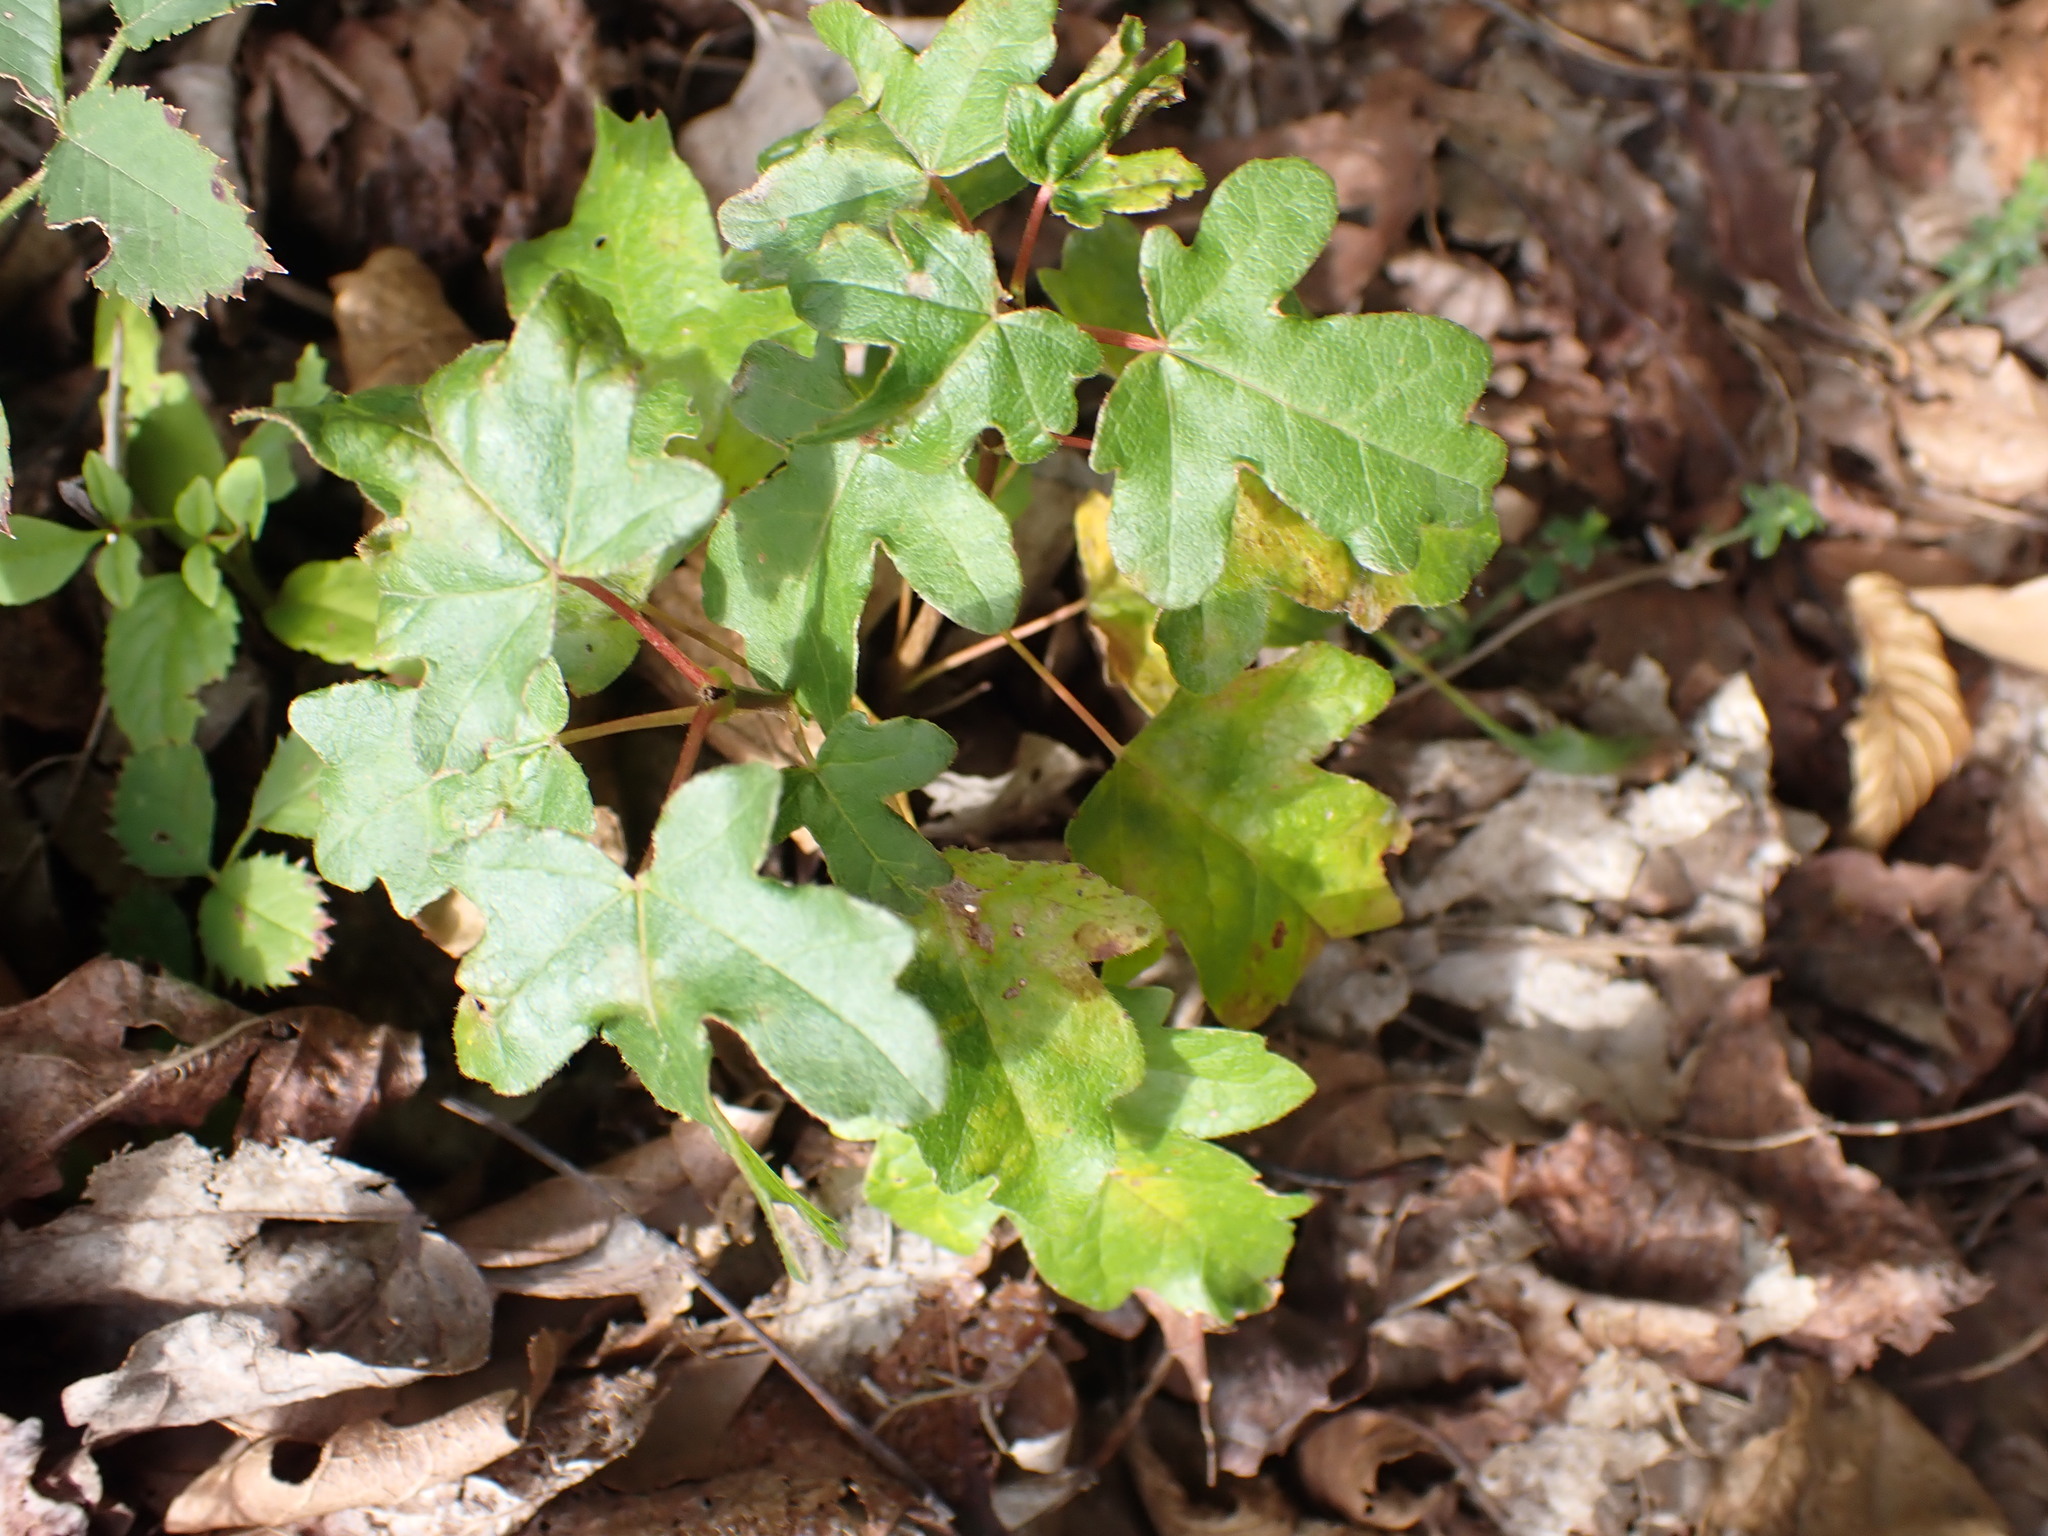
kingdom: Plantae
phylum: Tracheophyta
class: Magnoliopsida
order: Sapindales
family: Sapindaceae
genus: Acer
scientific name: Acer campestre
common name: Field maple
